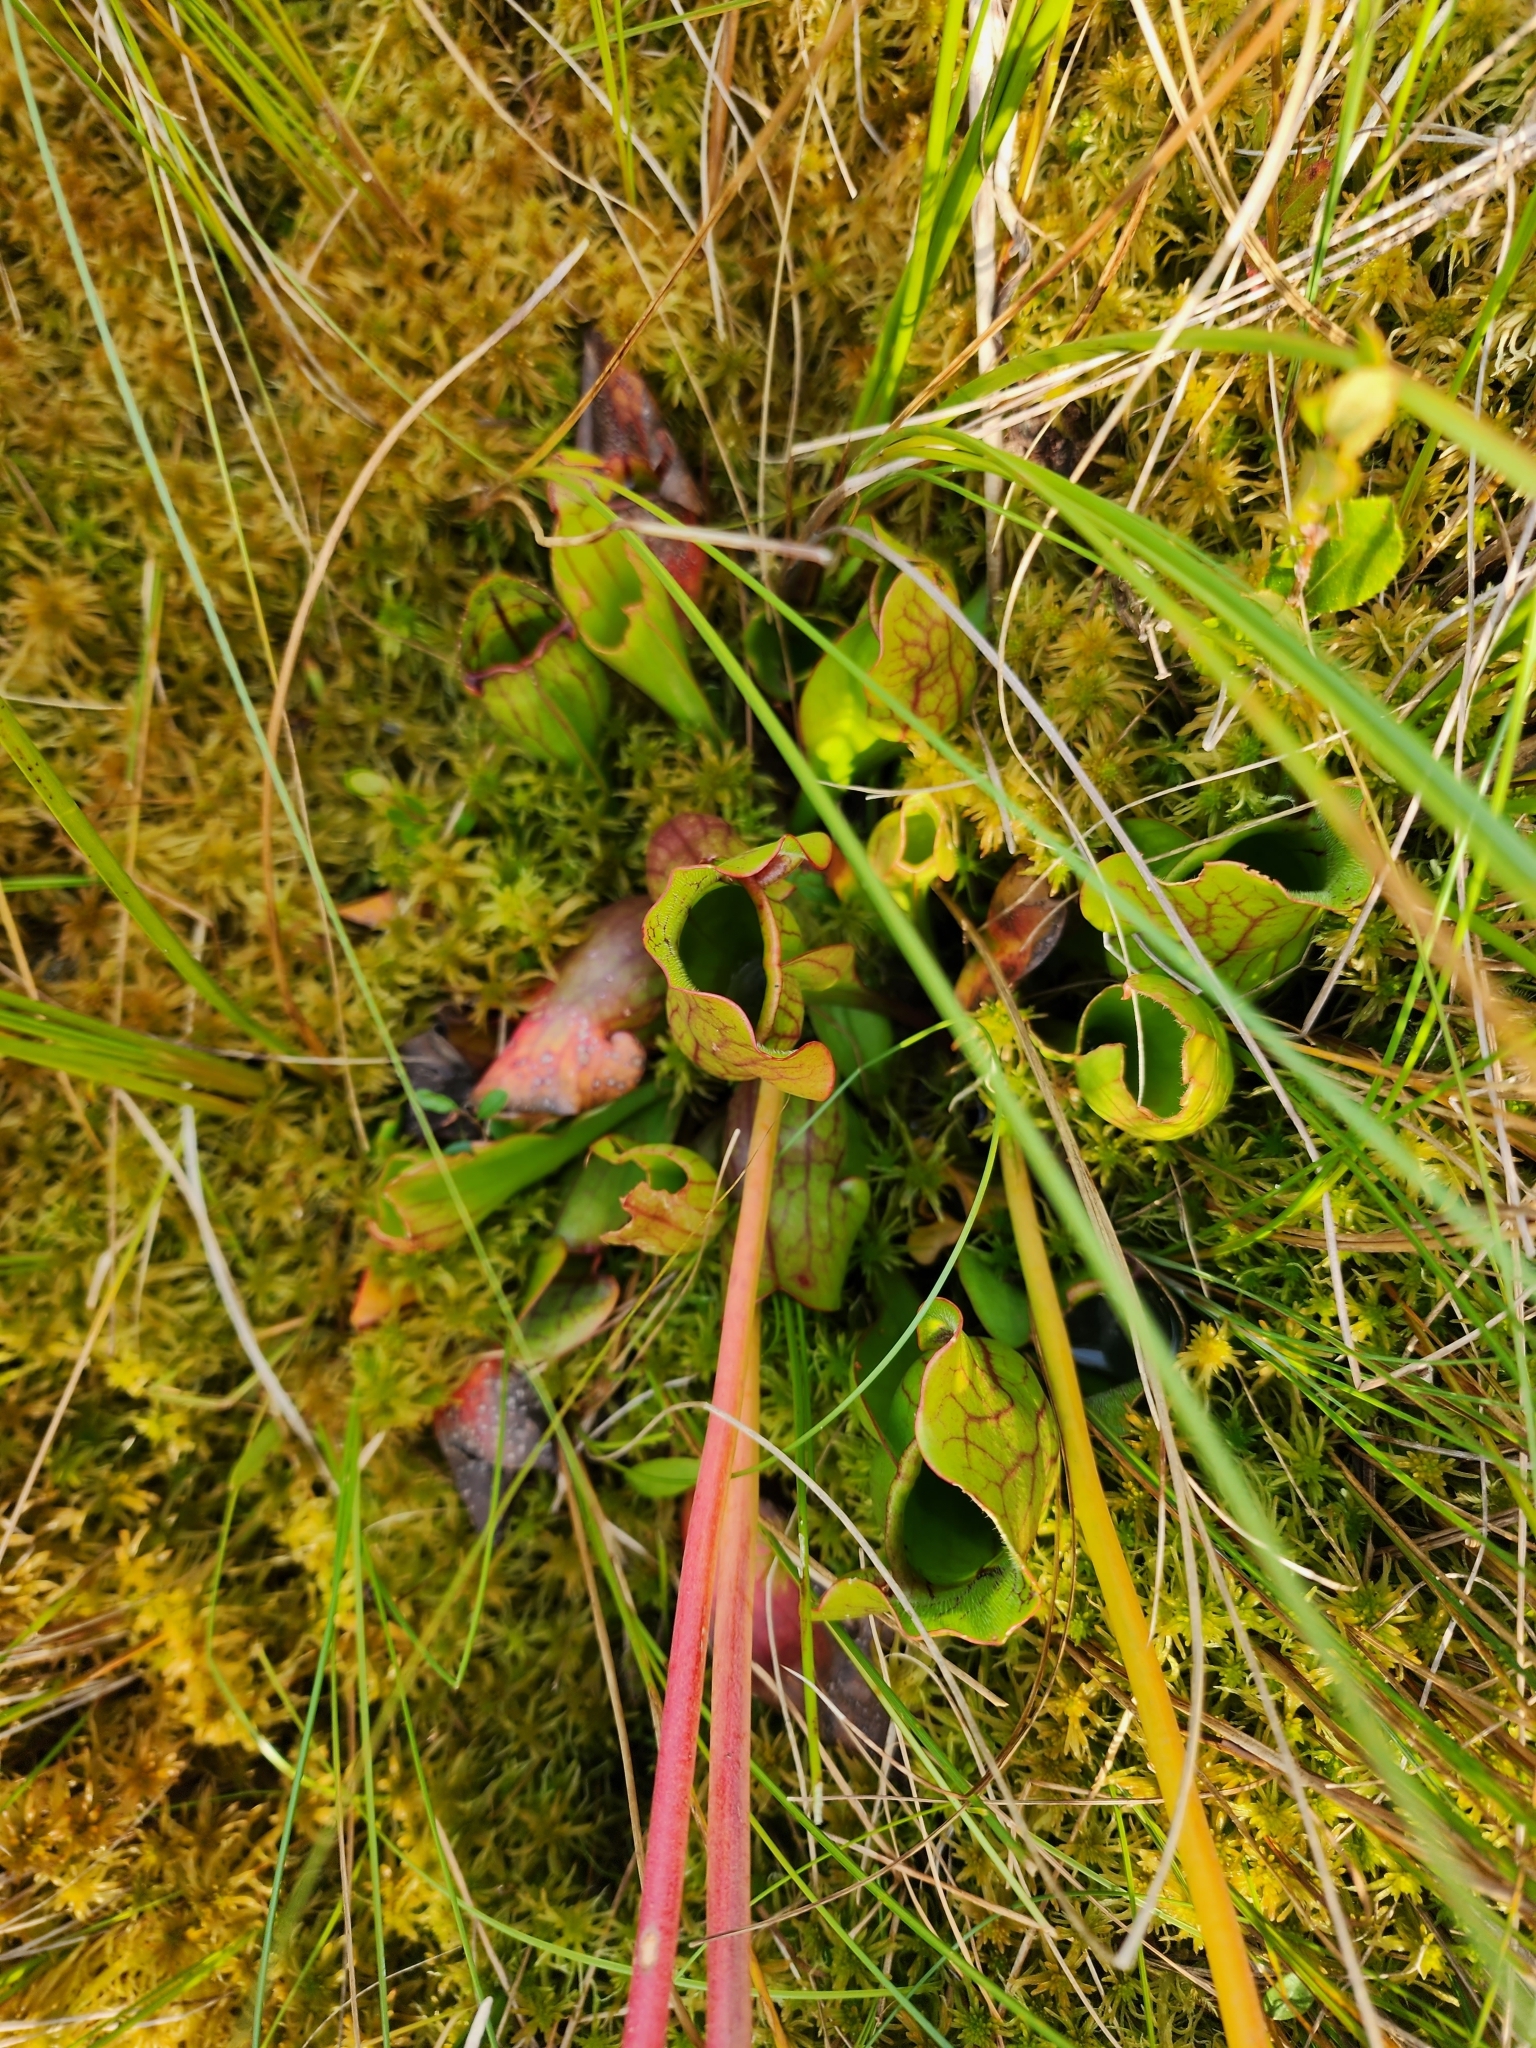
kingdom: Plantae
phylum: Tracheophyta
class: Magnoliopsida
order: Ericales
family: Sarraceniaceae
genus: Sarracenia
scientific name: Sarracenia purpurea
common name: Pitcherplant
